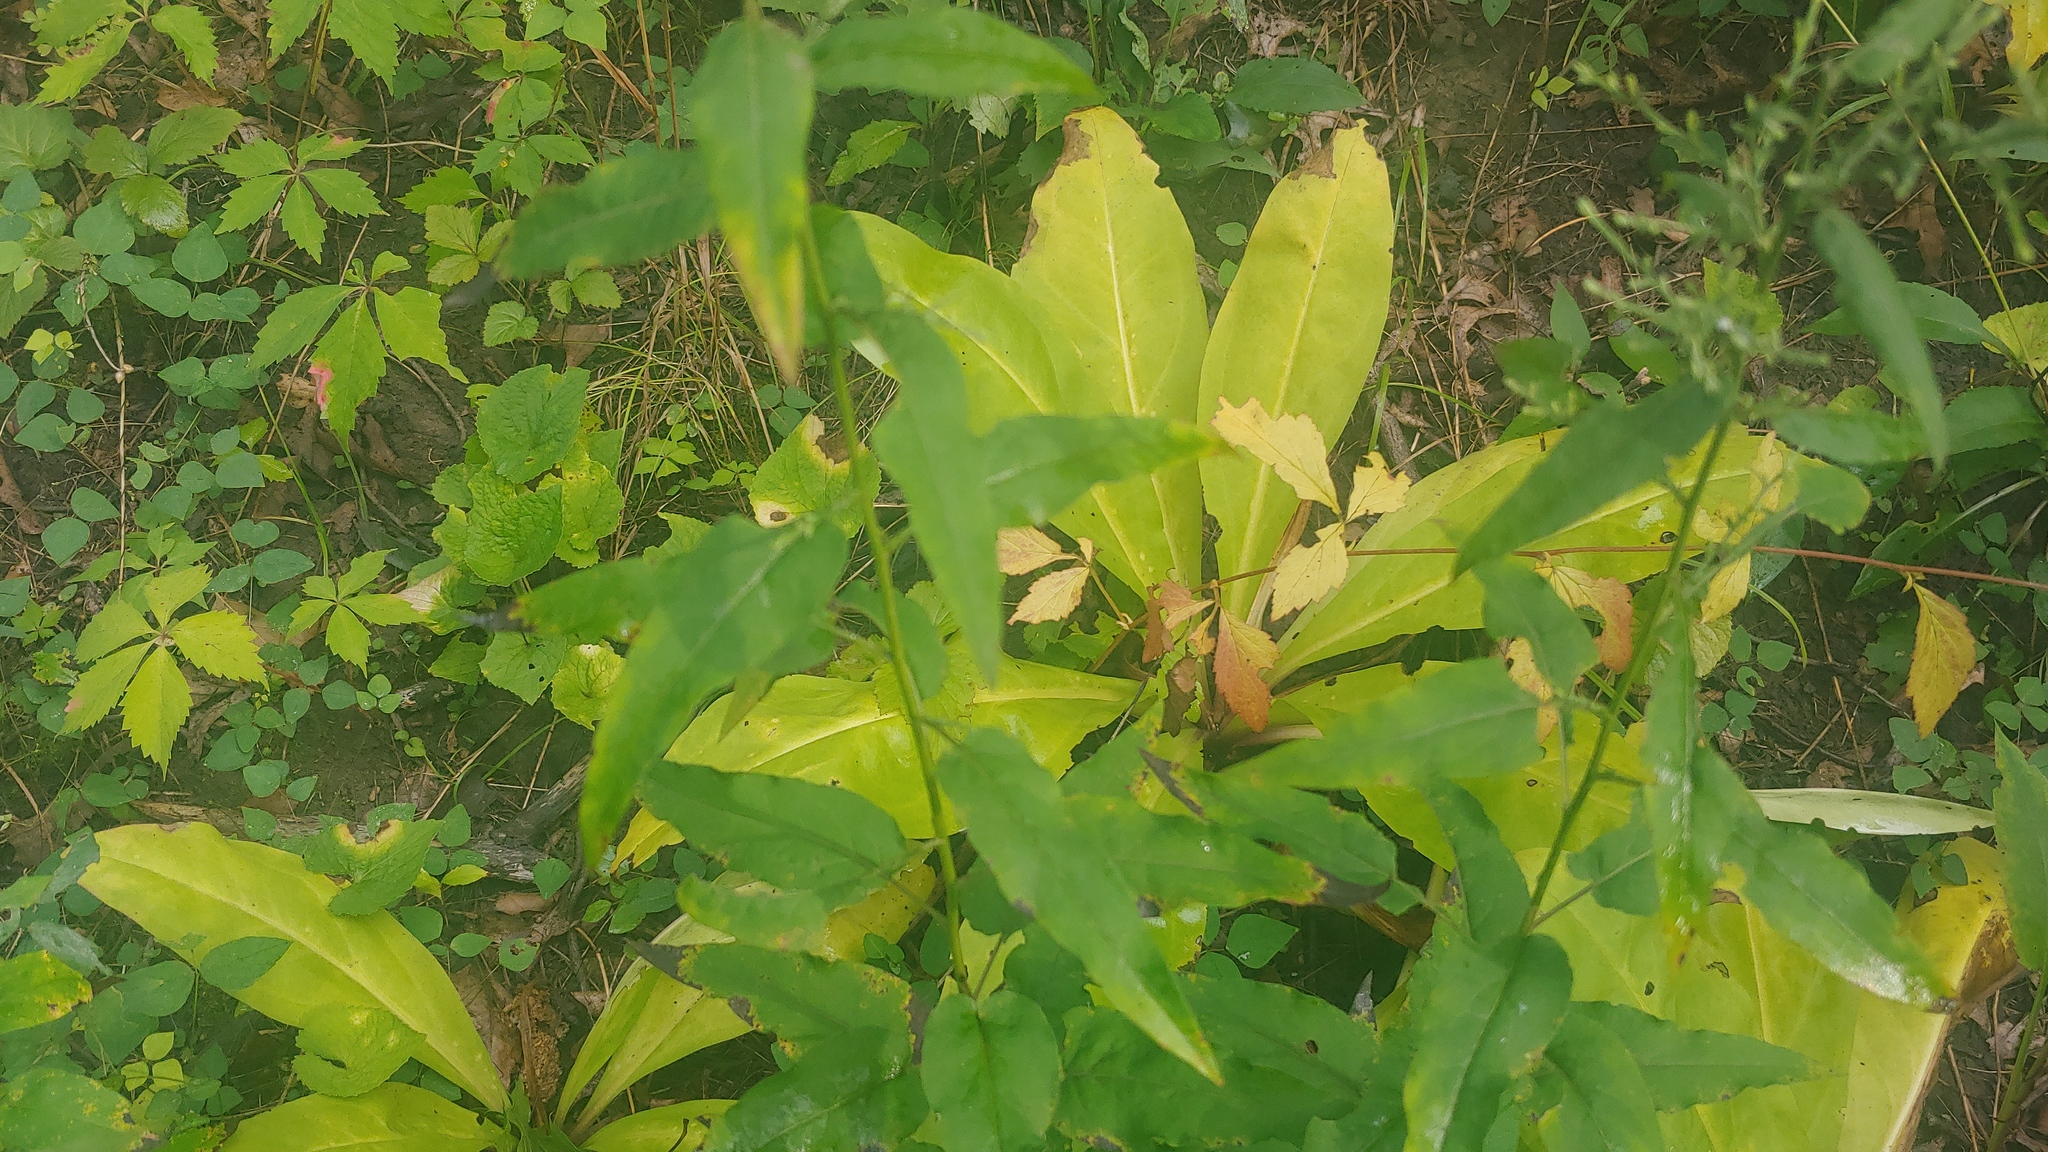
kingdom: Plantae
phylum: Tracheophyta
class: Magnoliopsida
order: Gentianales
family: Gentianaceae
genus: Frasera
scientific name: Frasera caroliniensis
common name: American columbo
